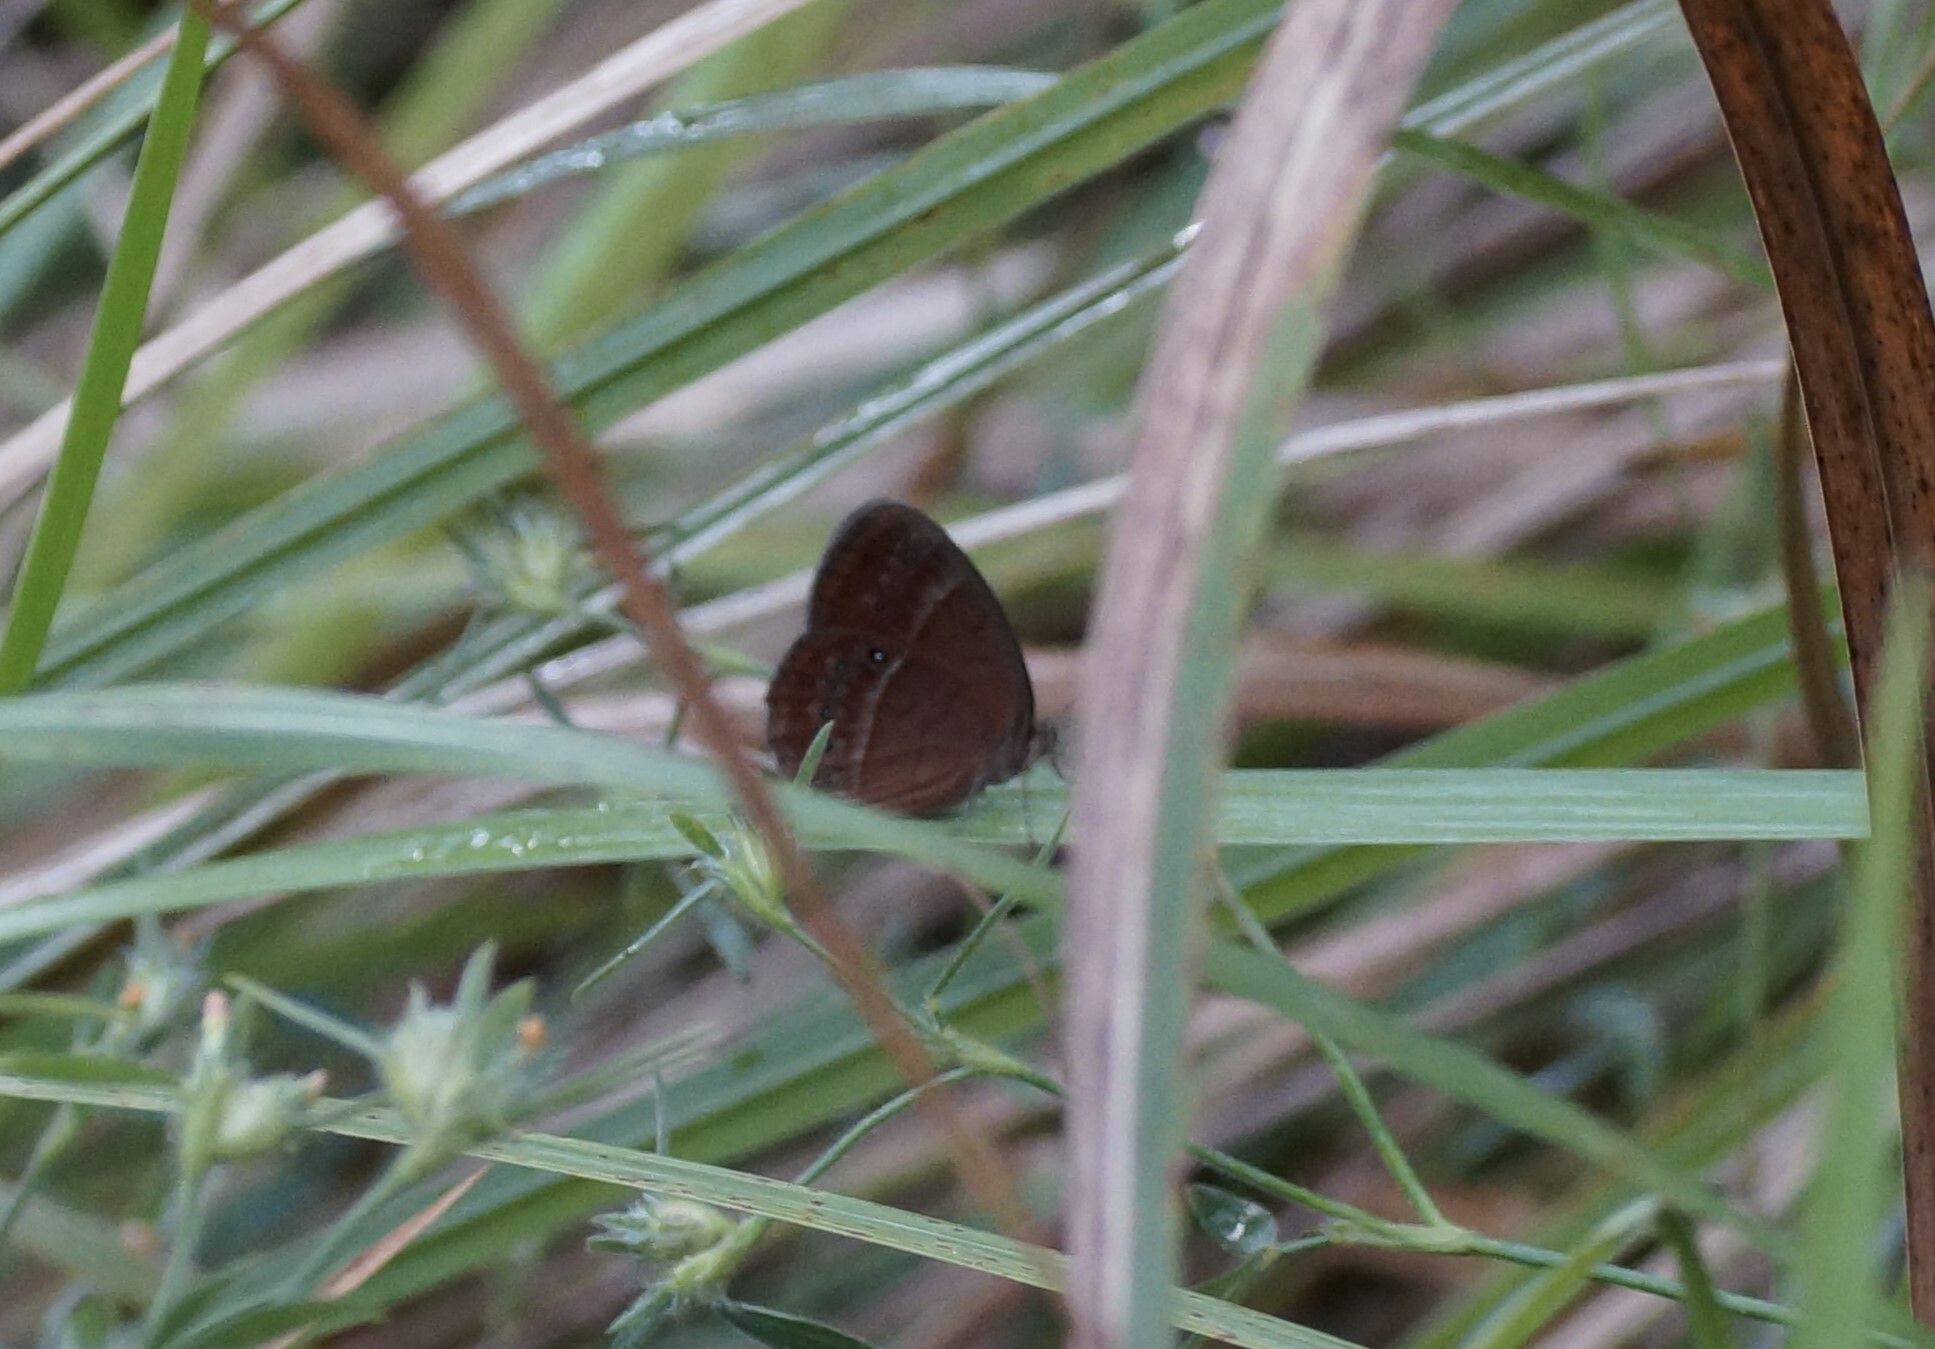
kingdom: Animalia
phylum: Arthropoda
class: Insecta
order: Lepidoptera
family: Nymphalidae
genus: Mycalesis
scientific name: Mycalesis perseus
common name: Dingy bushbrown
